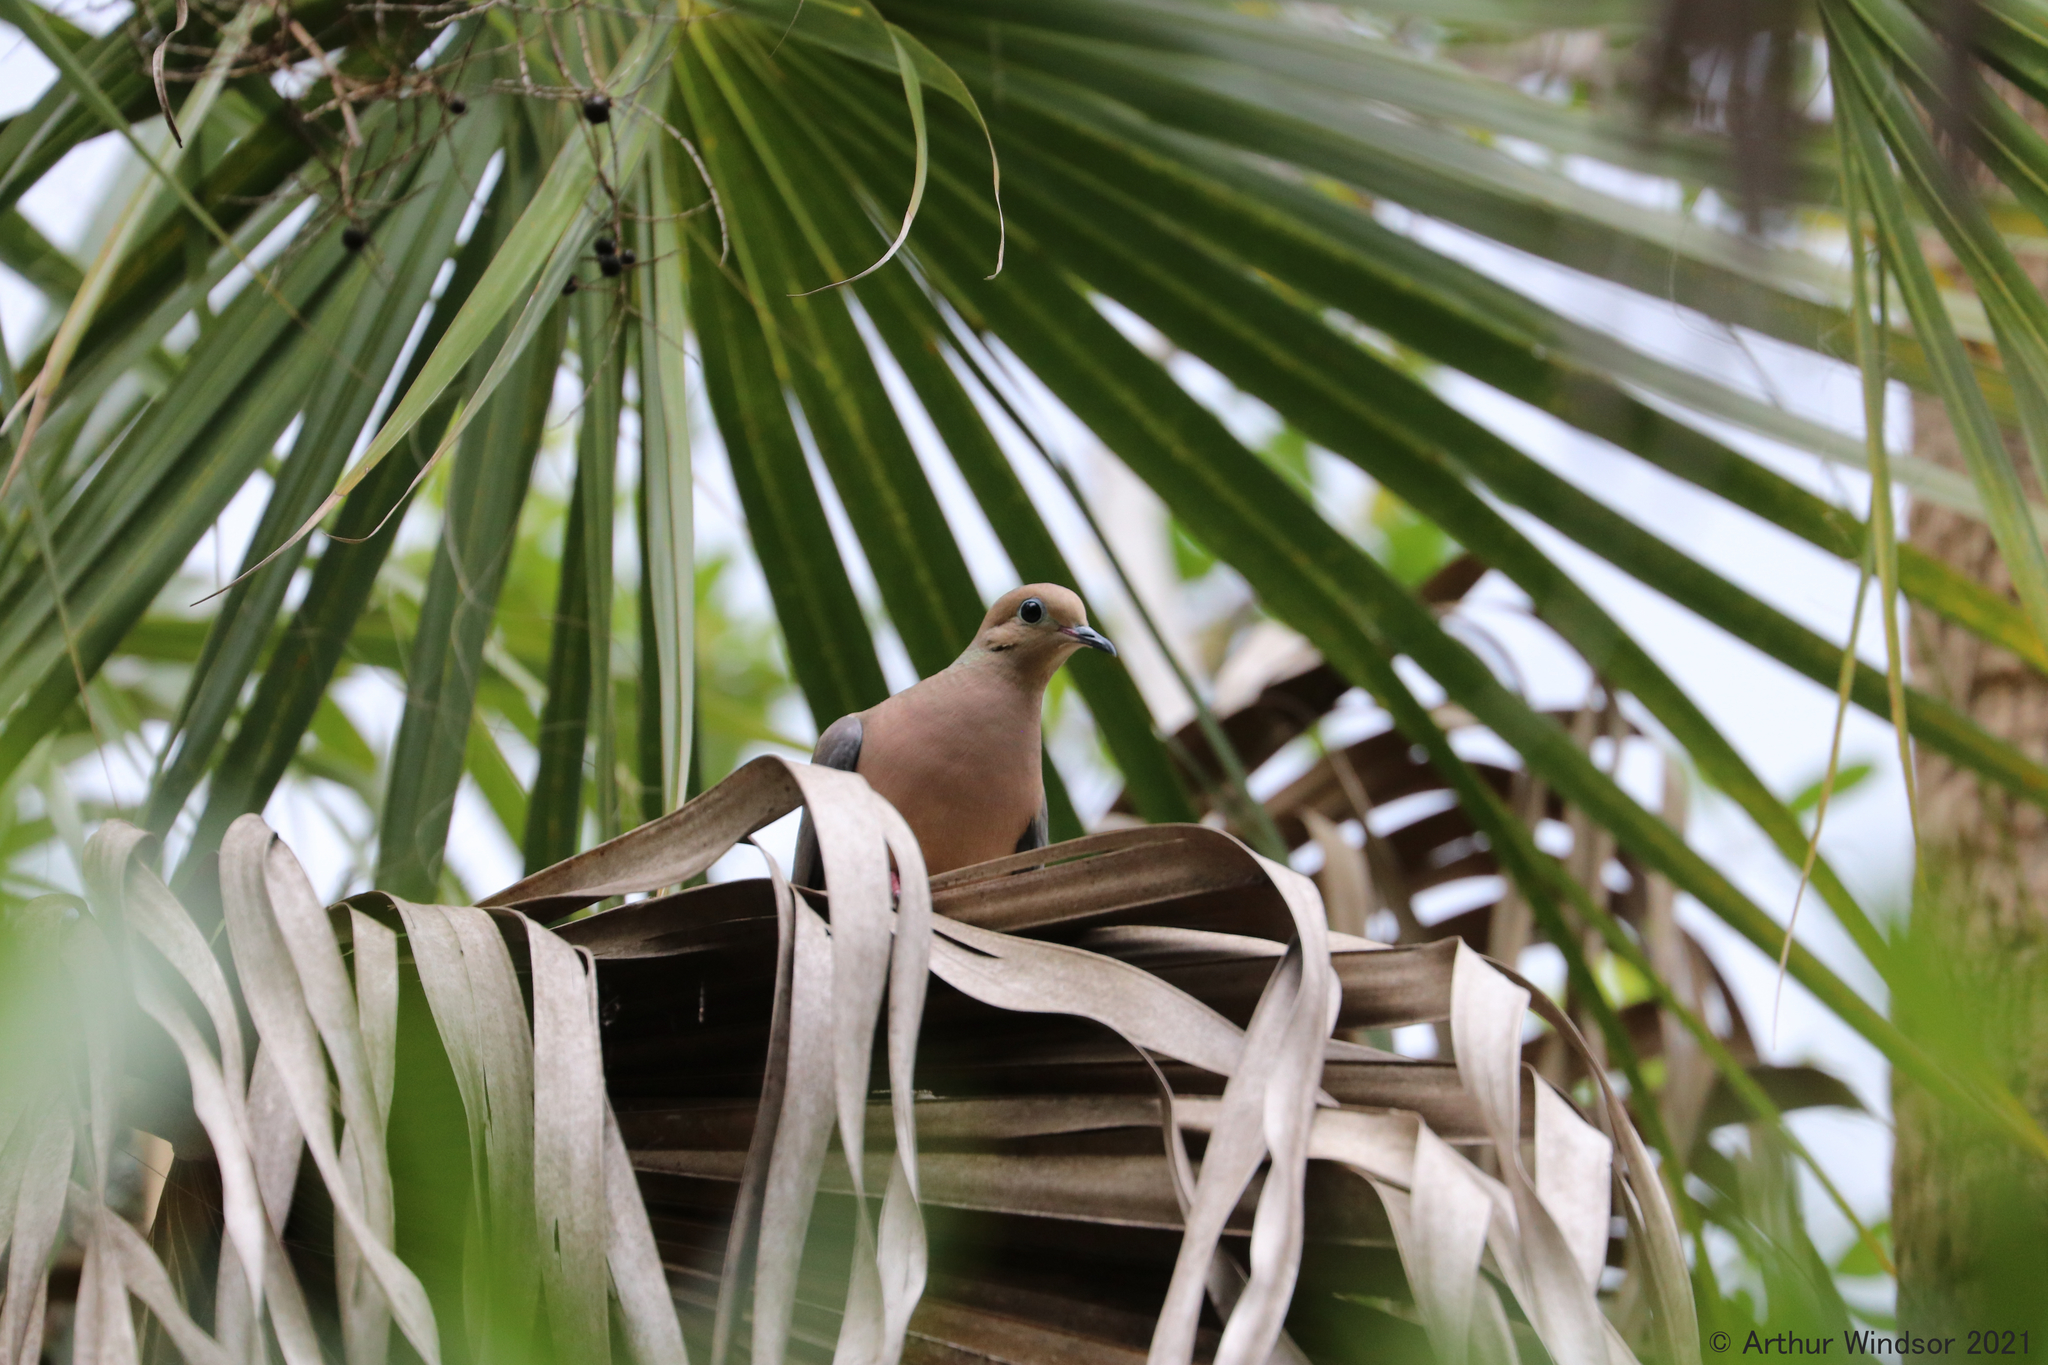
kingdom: Animalia
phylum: Chordata
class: Aves
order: Columbiformes
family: Columbidae
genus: Zenaida
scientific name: Zenaida macroura
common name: Mourning dove
